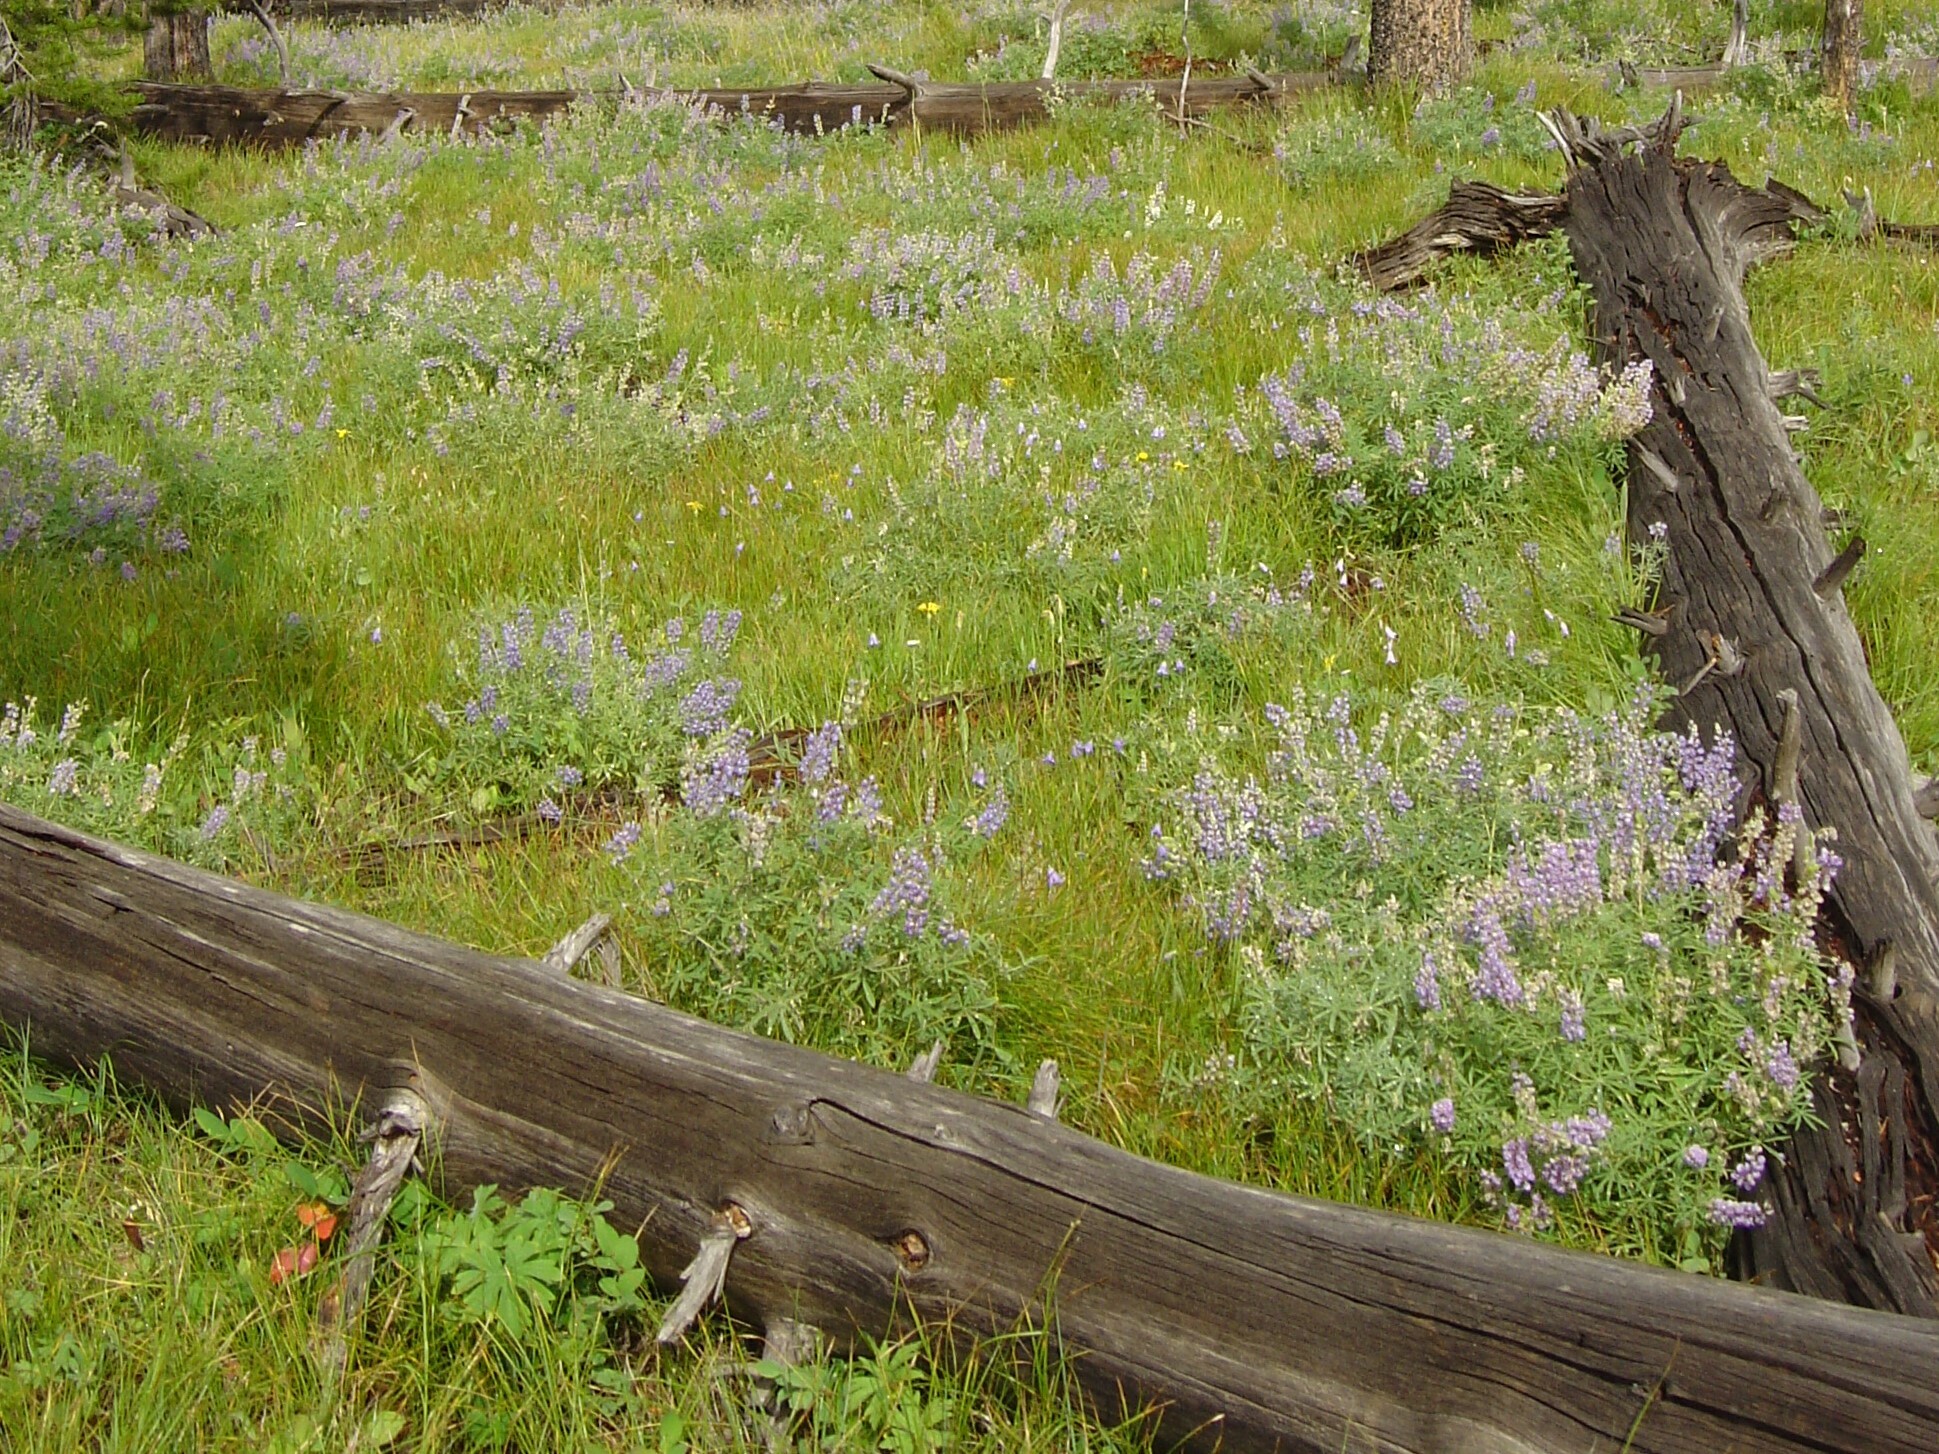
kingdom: Plantae
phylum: Tracheophyta
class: Magnoliopsida
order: Fabales
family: Fabaceae
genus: Lupinus
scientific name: Lupinus
